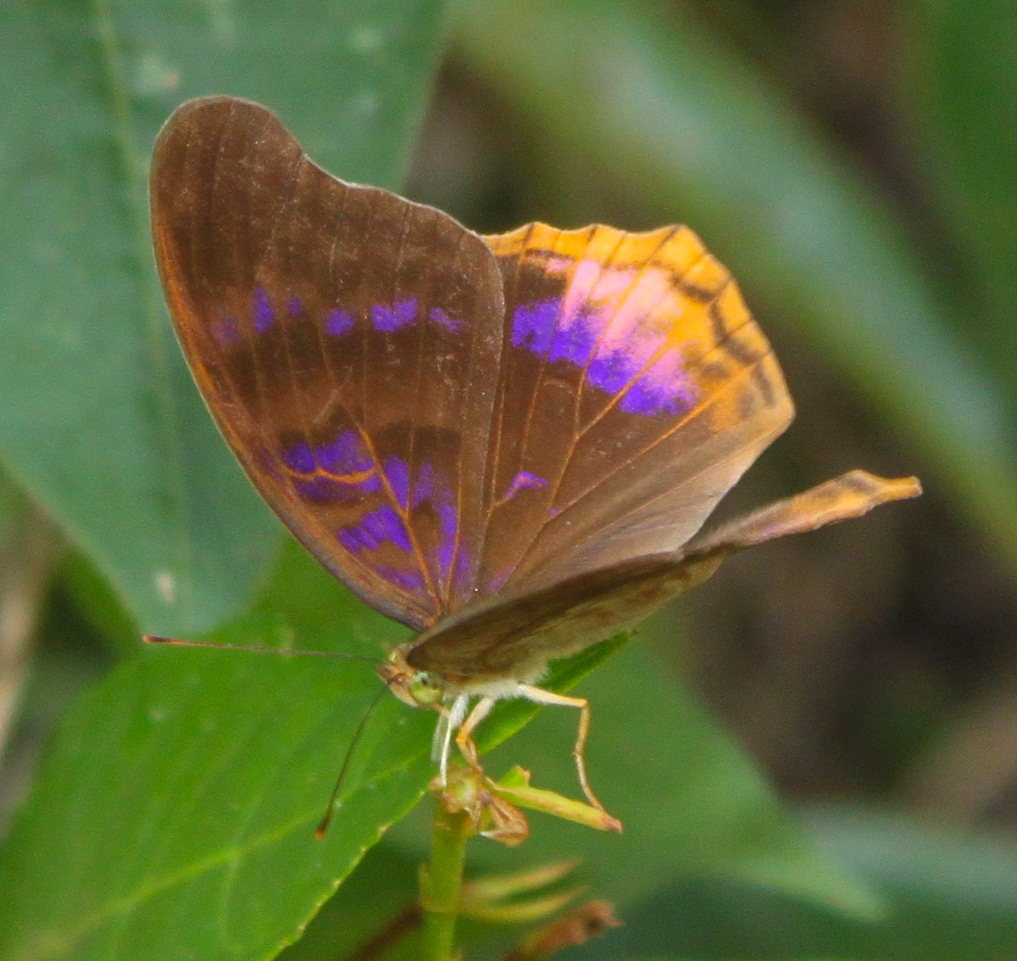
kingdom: Animalia
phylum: Arthropoda
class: Insecta
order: Lepidoptera
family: Nymphalidae
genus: Terinos
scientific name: Terinos terpander
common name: Royal assyrian
